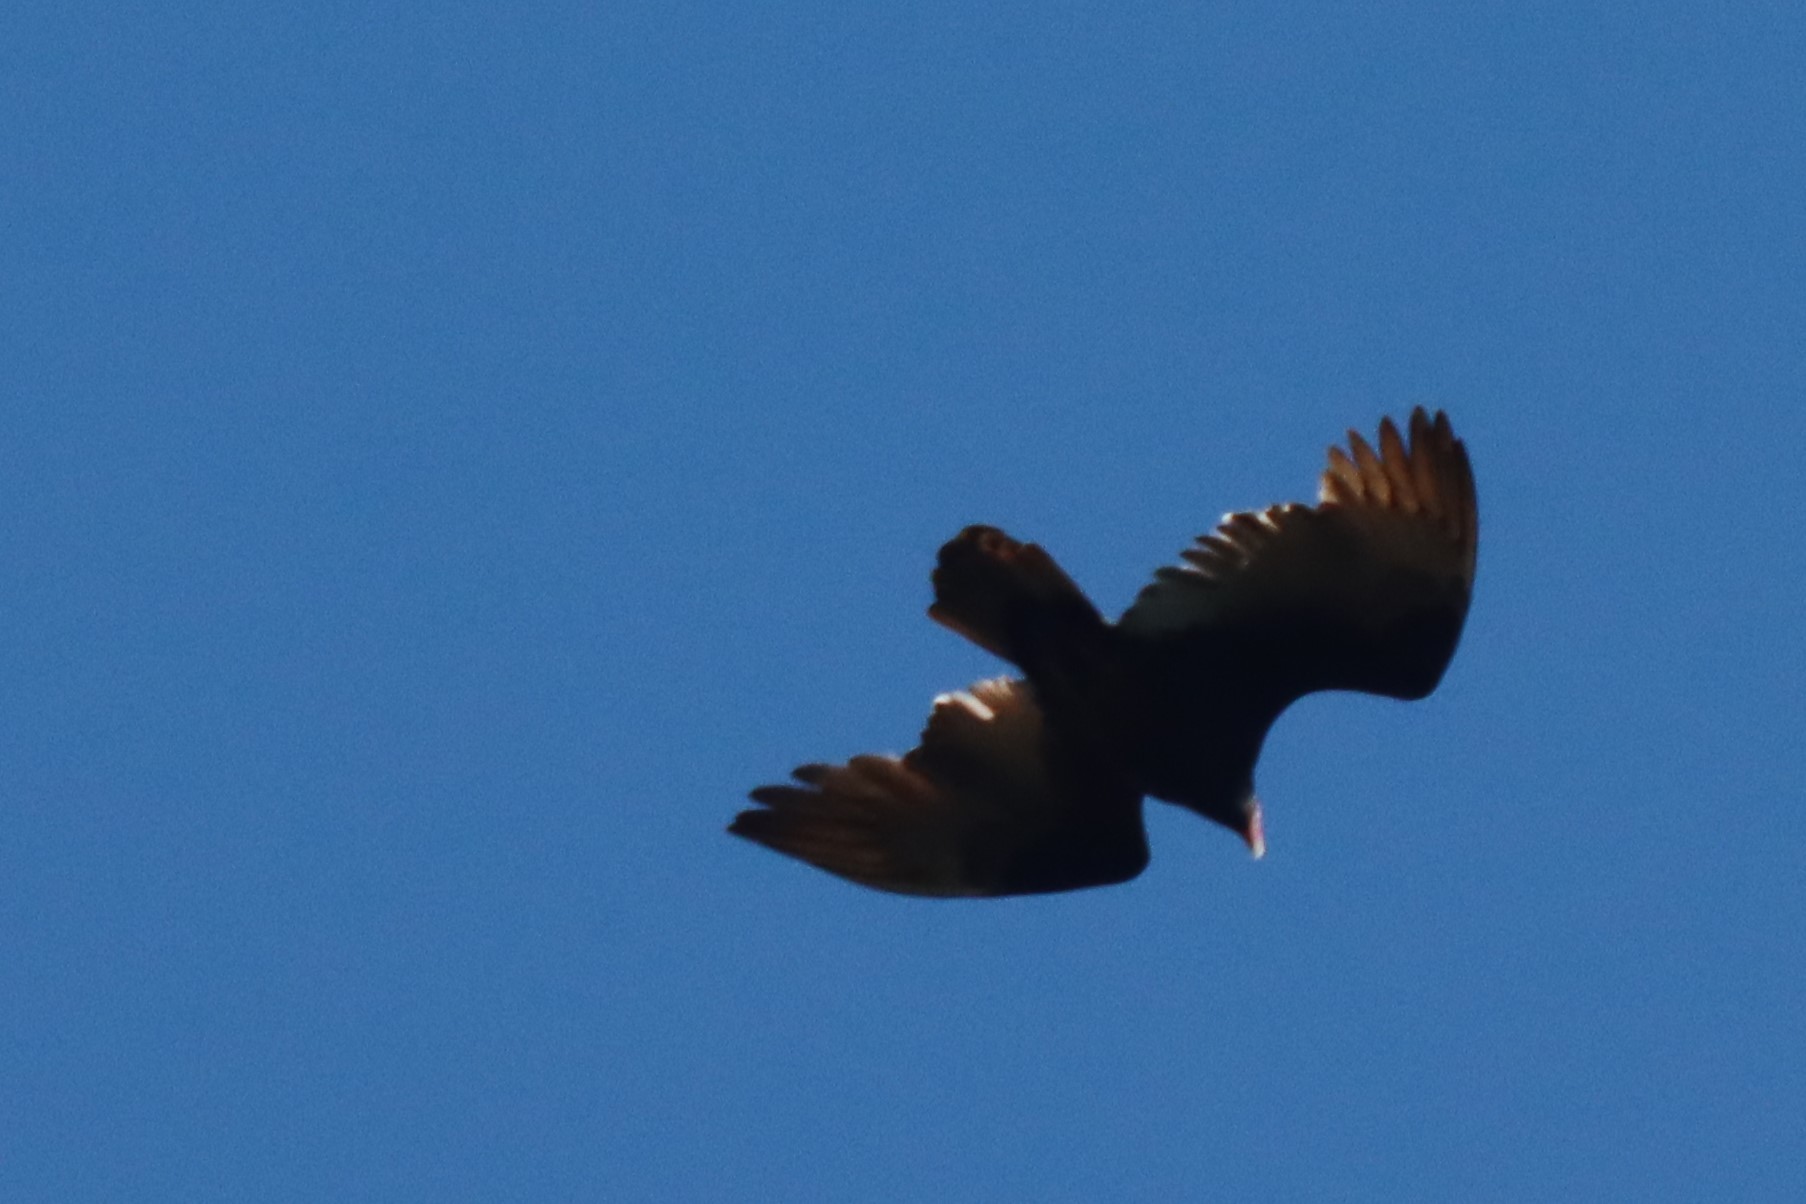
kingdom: Animalia
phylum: Chordata
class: Aves
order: Accipitriformes
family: Cathartidae
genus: Cathartes
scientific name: Cathartes aura
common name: Turkey vulture
